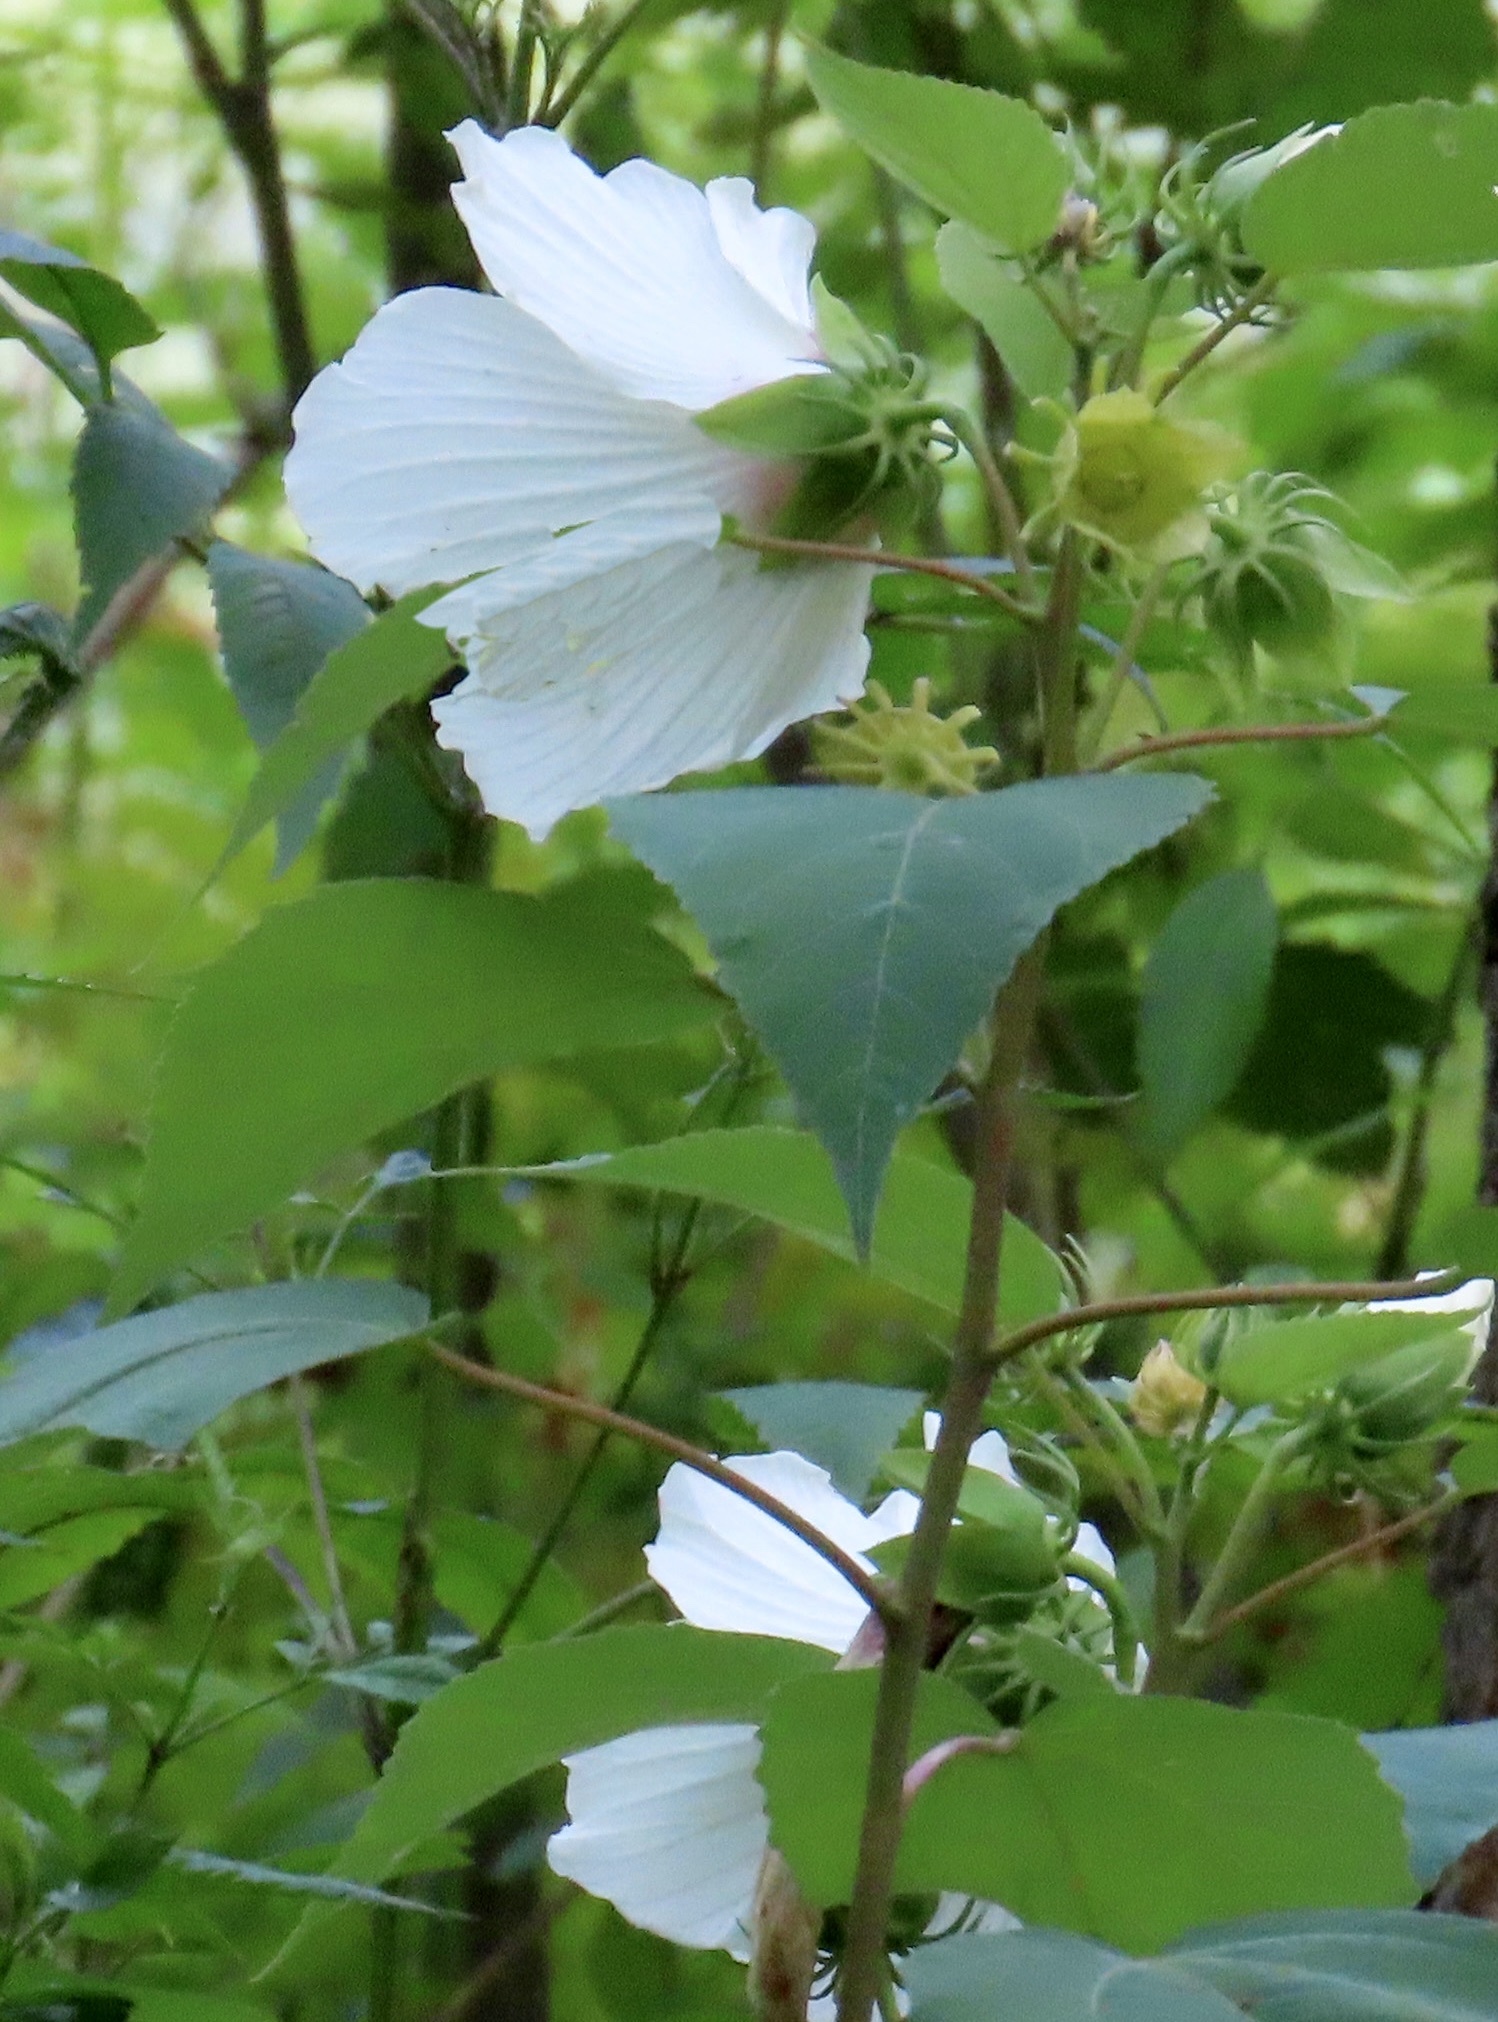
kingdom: Plantae
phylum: Tracheophyta
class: Magnoliopsida
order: Malvales
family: Malvaceae
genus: Hibiscus
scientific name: Hibiscus moscheutos
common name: Common rose-mallow
